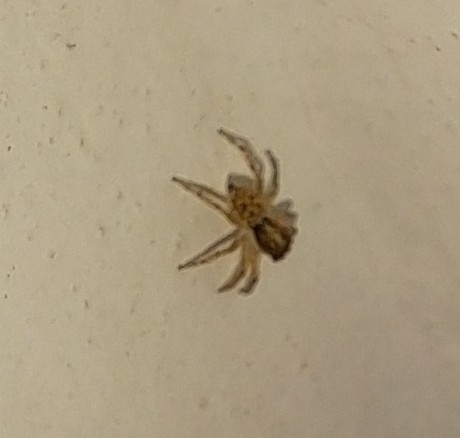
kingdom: Animalia
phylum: Arthropoda
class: Arachnida
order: Araneae
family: Salticidae
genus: Menemerus
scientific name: Menemerus semilimbatus
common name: Jumping spider
